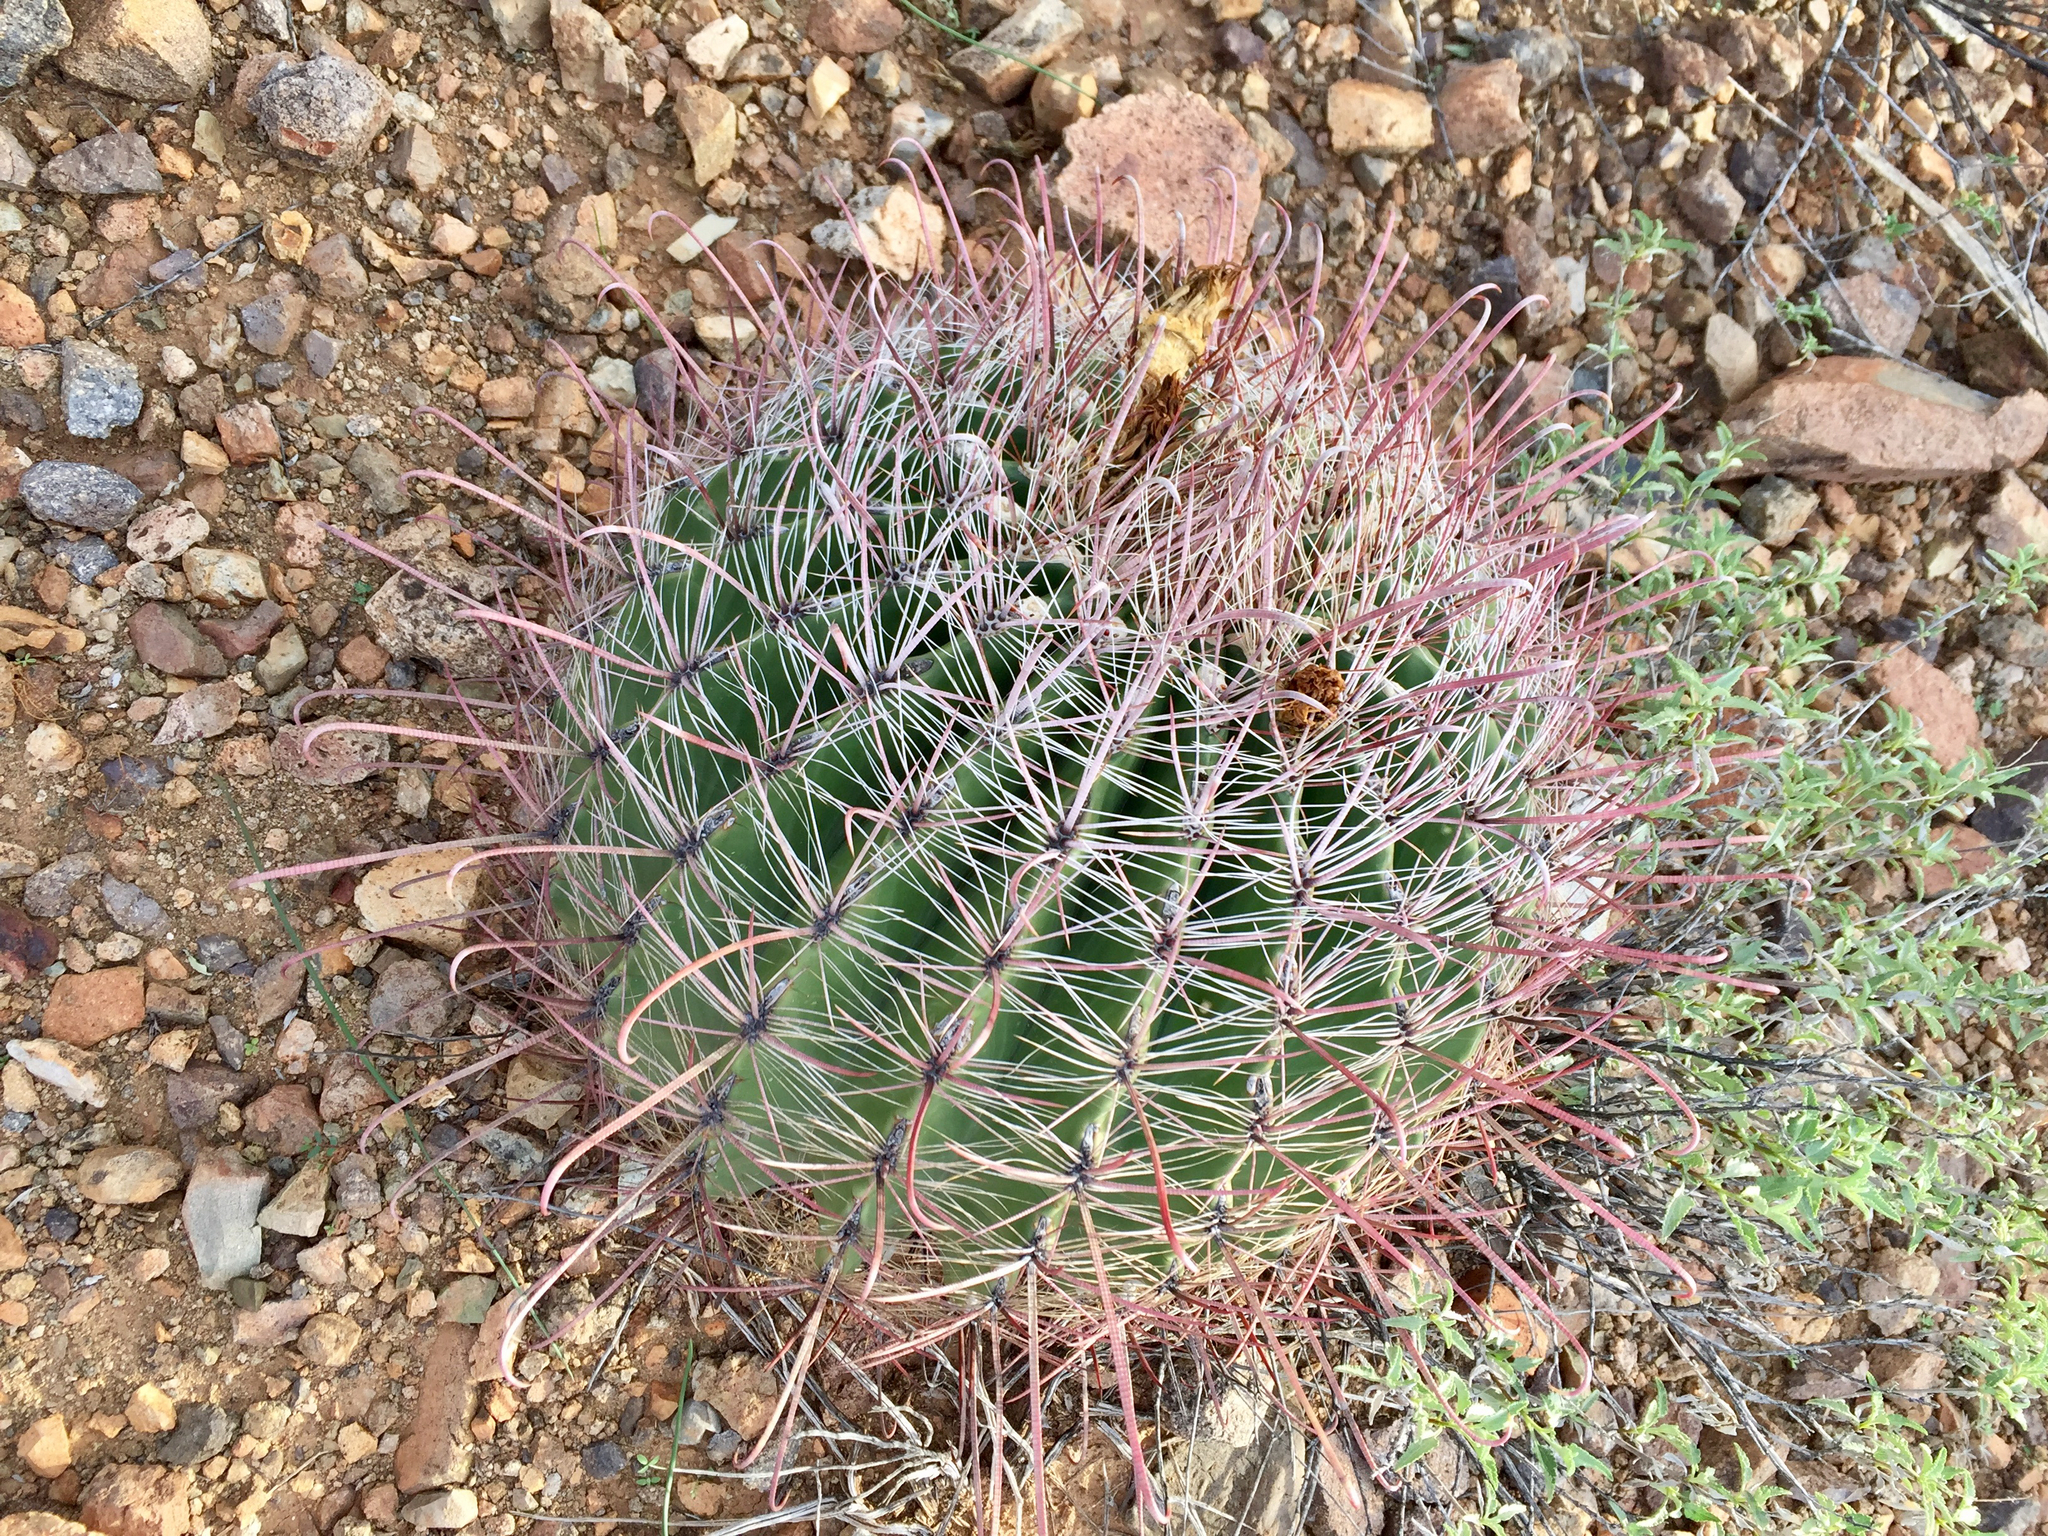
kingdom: Plantae
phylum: Tracheophyta
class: Magnoliopsida
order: Caryophyllales
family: Cactaceae
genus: Ferocactus
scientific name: Ferocactus wislizeni
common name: Candy barrel cactus
